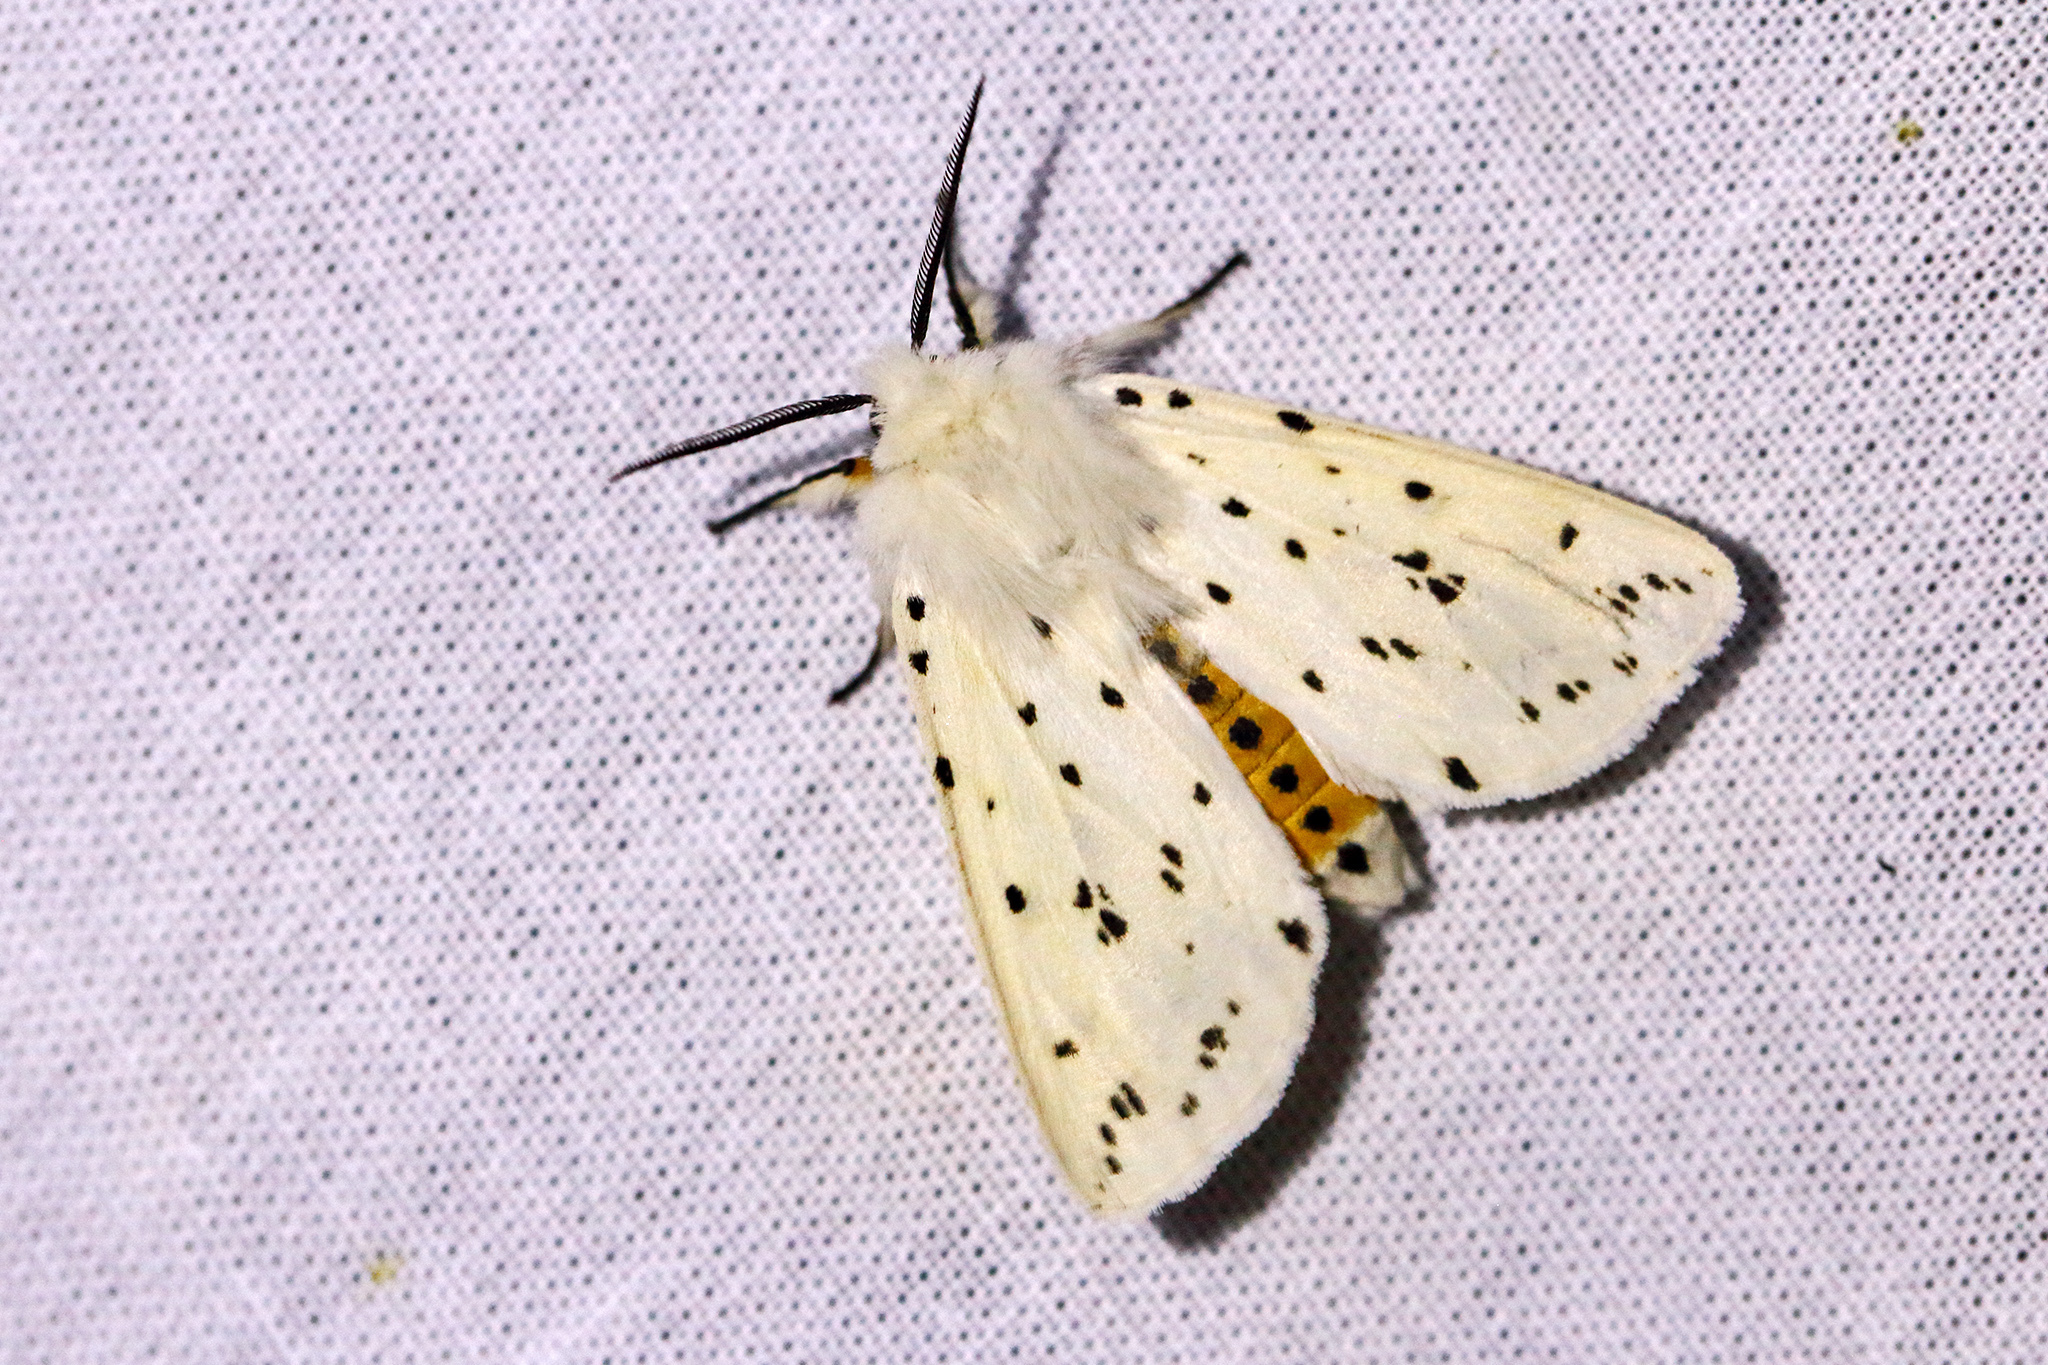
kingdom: Animalia
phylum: Arthropoda
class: Insecta
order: Lepidoptera
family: Erebidae
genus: Spilosoma
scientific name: Spilosoma lubricipeda
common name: White ermine
